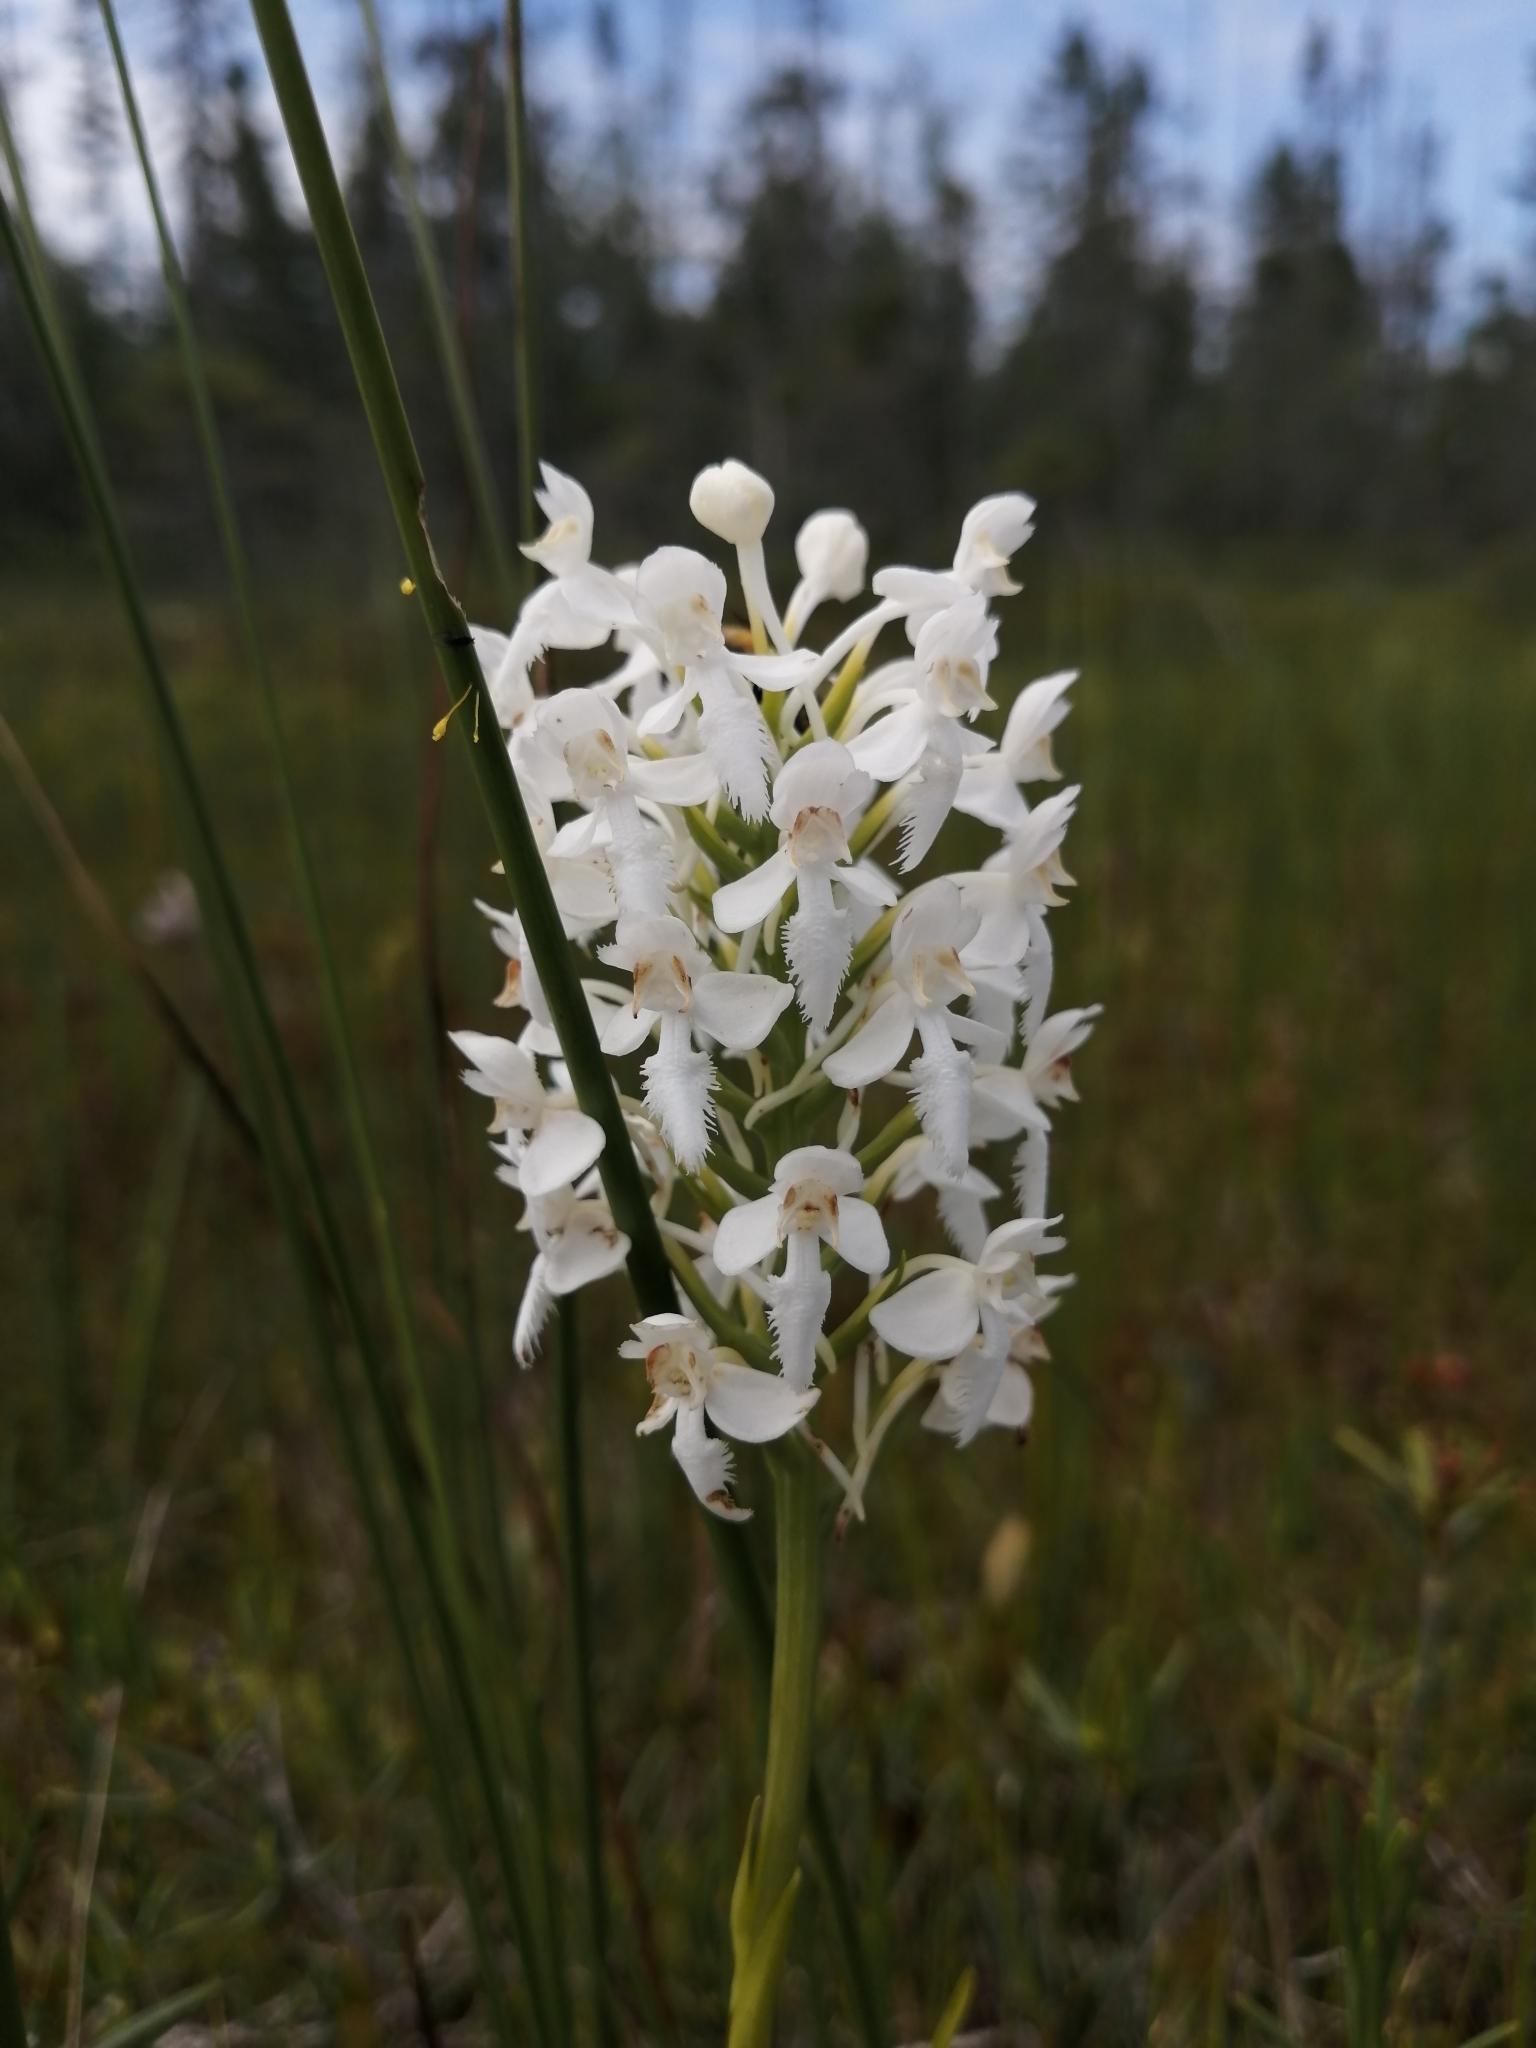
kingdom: Plantae
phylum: Tracheophyta
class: Liliopsida
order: Asparagales
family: Orchidaceae
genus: Platanthera
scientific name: Platanthera blephariglottis
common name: White fringed orchid
